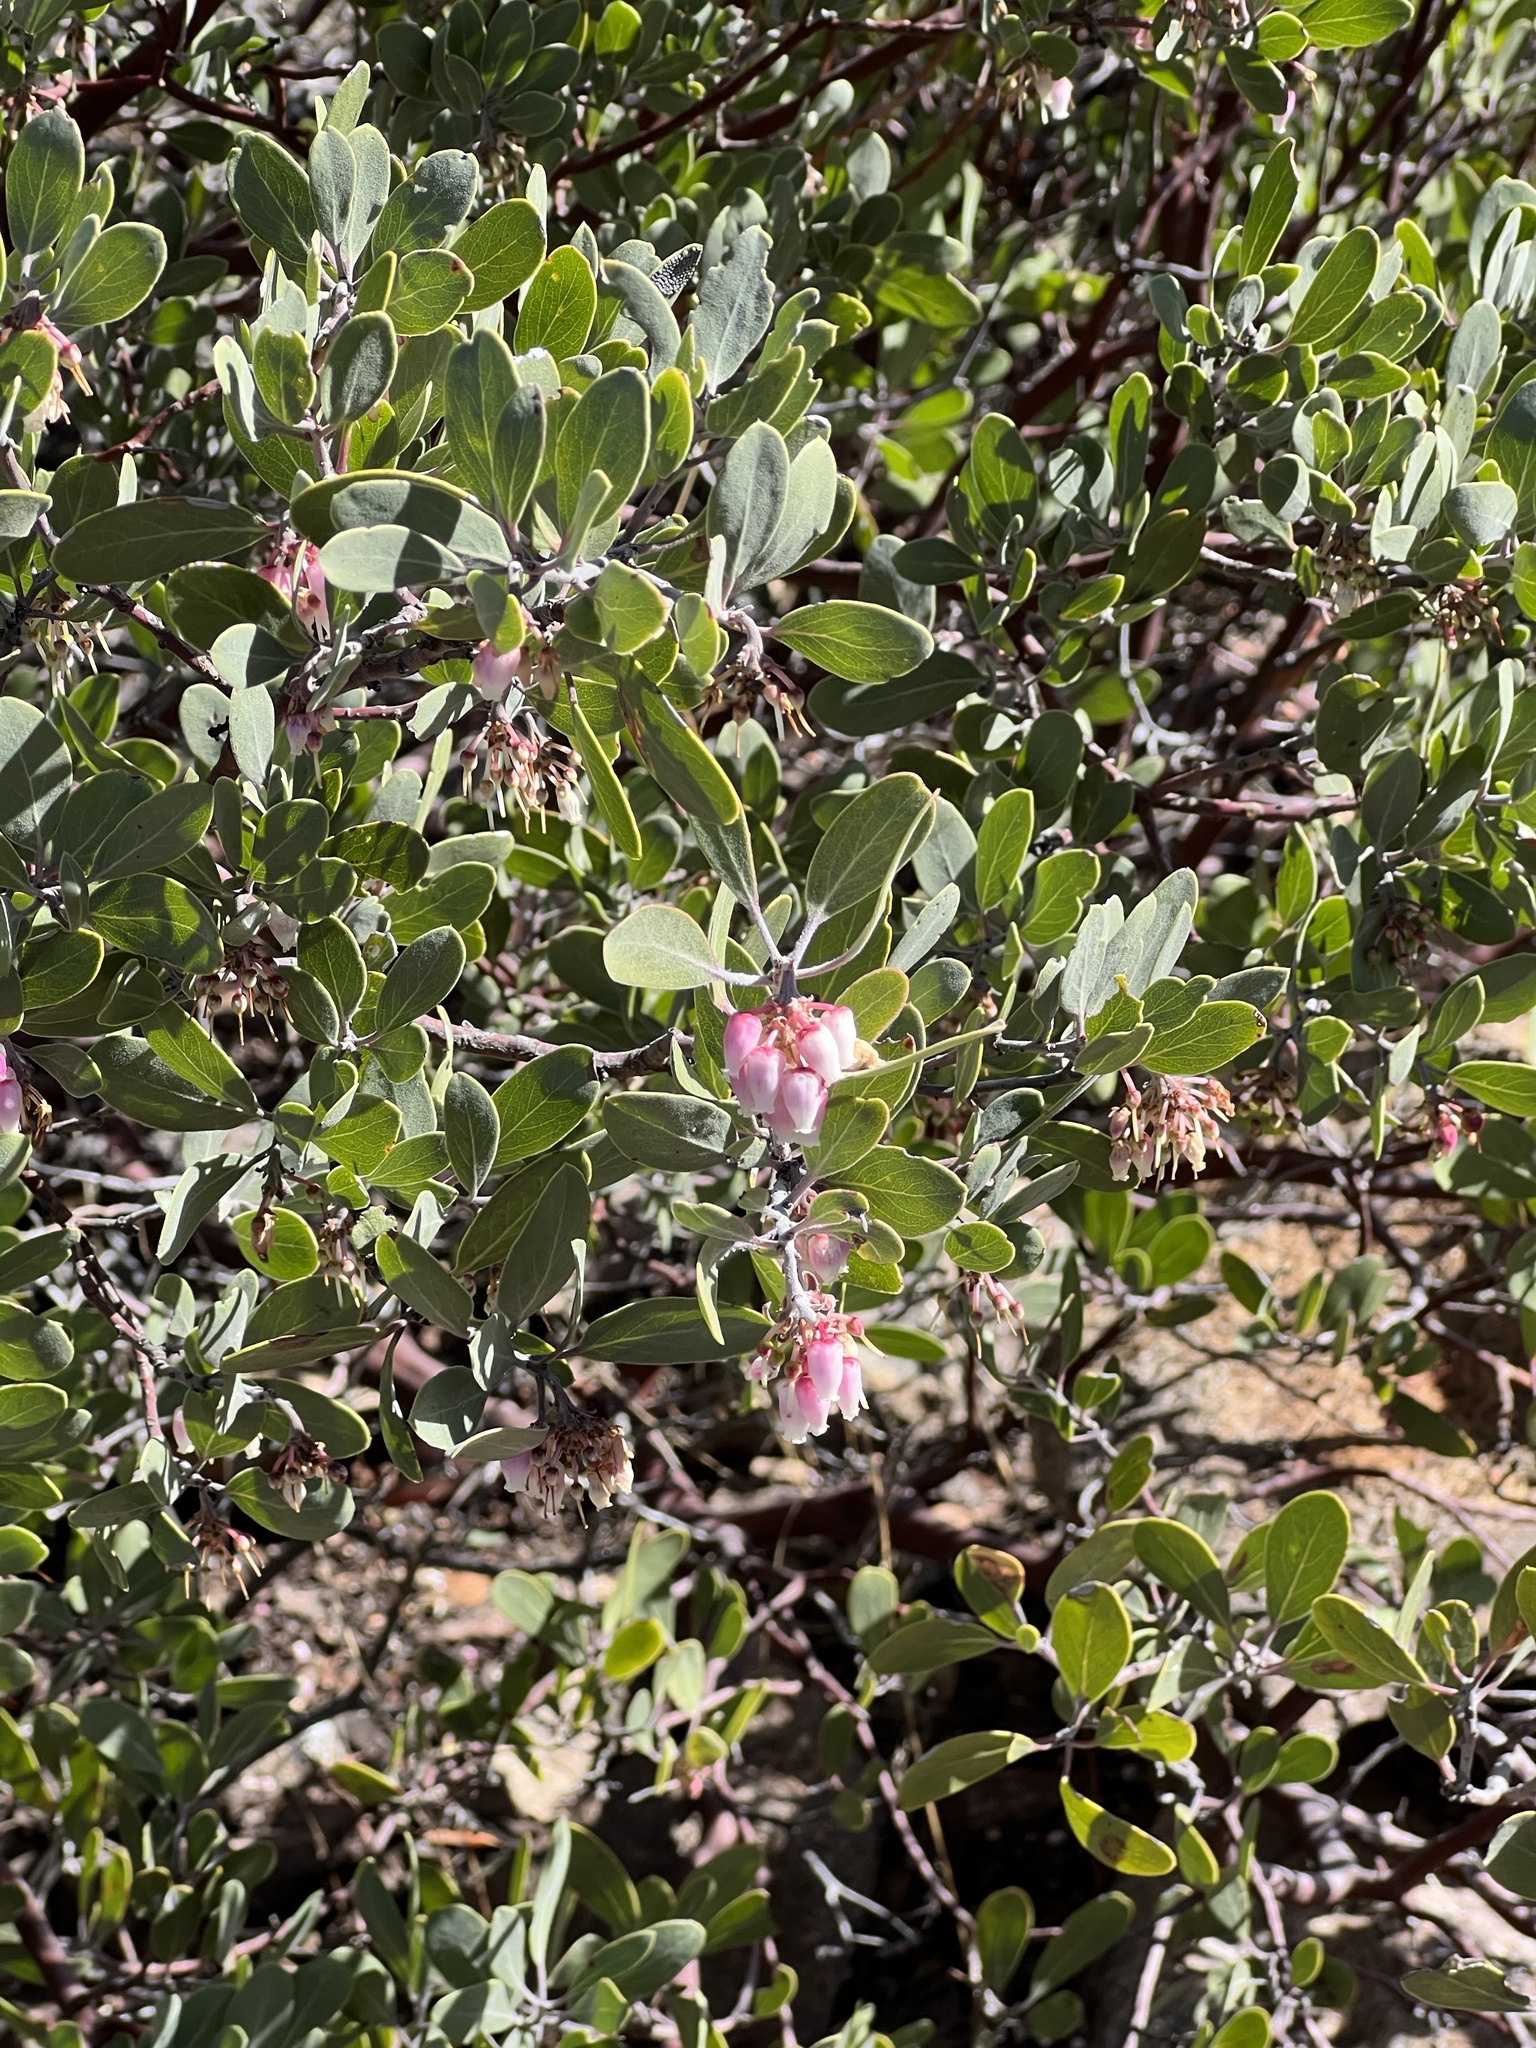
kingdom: Plantae
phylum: Tracheophyta
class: Magnoliopsida
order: Ericales
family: Ericaceae
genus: Arctostaphylos
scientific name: Arctostaphylos pungens
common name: Mexican manzanita
